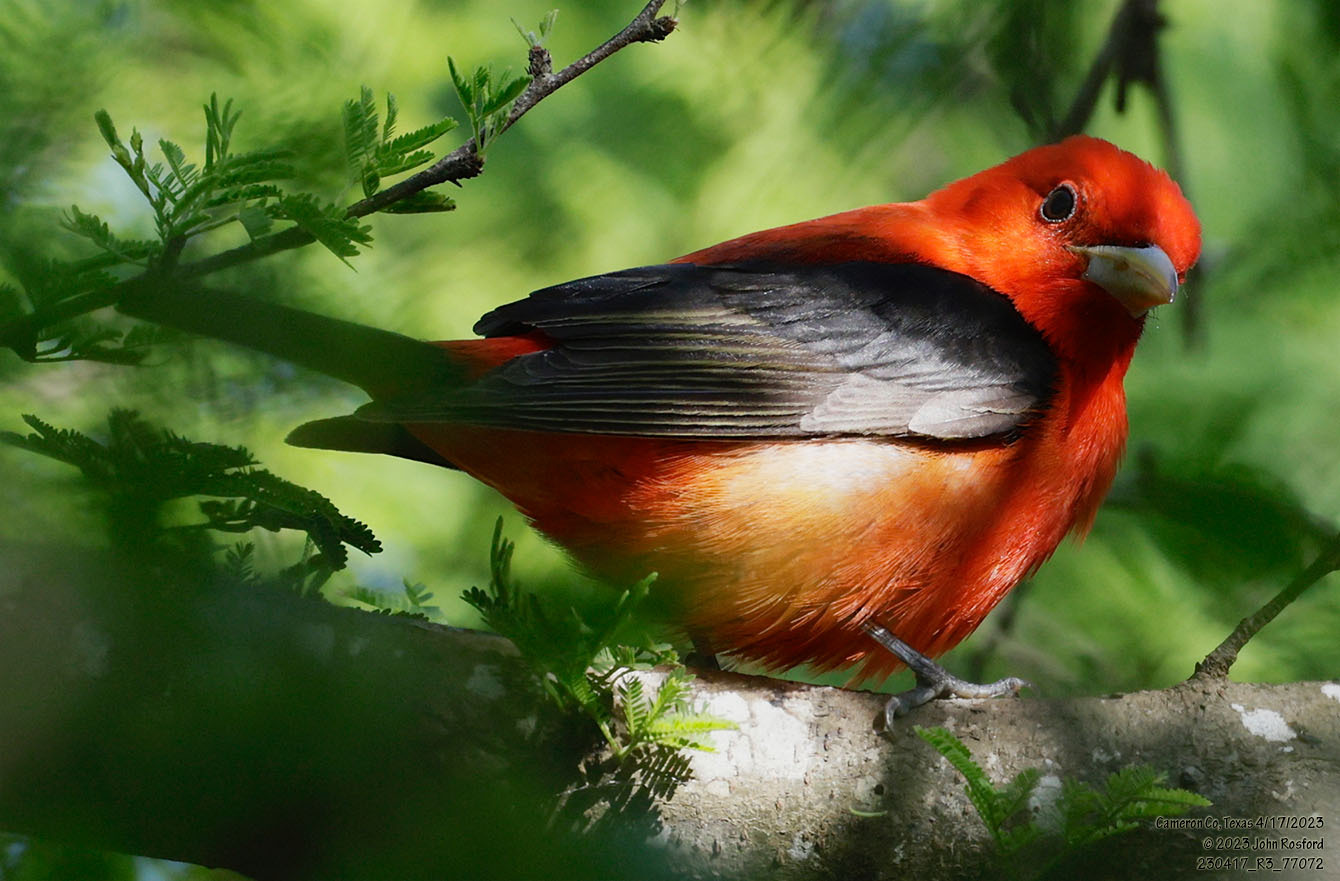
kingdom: Animalia
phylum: Chordata
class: Aves
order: Passeriformes
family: Cardinalidae
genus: Piranga
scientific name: Piranga olivacea
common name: Scarlet tanager
